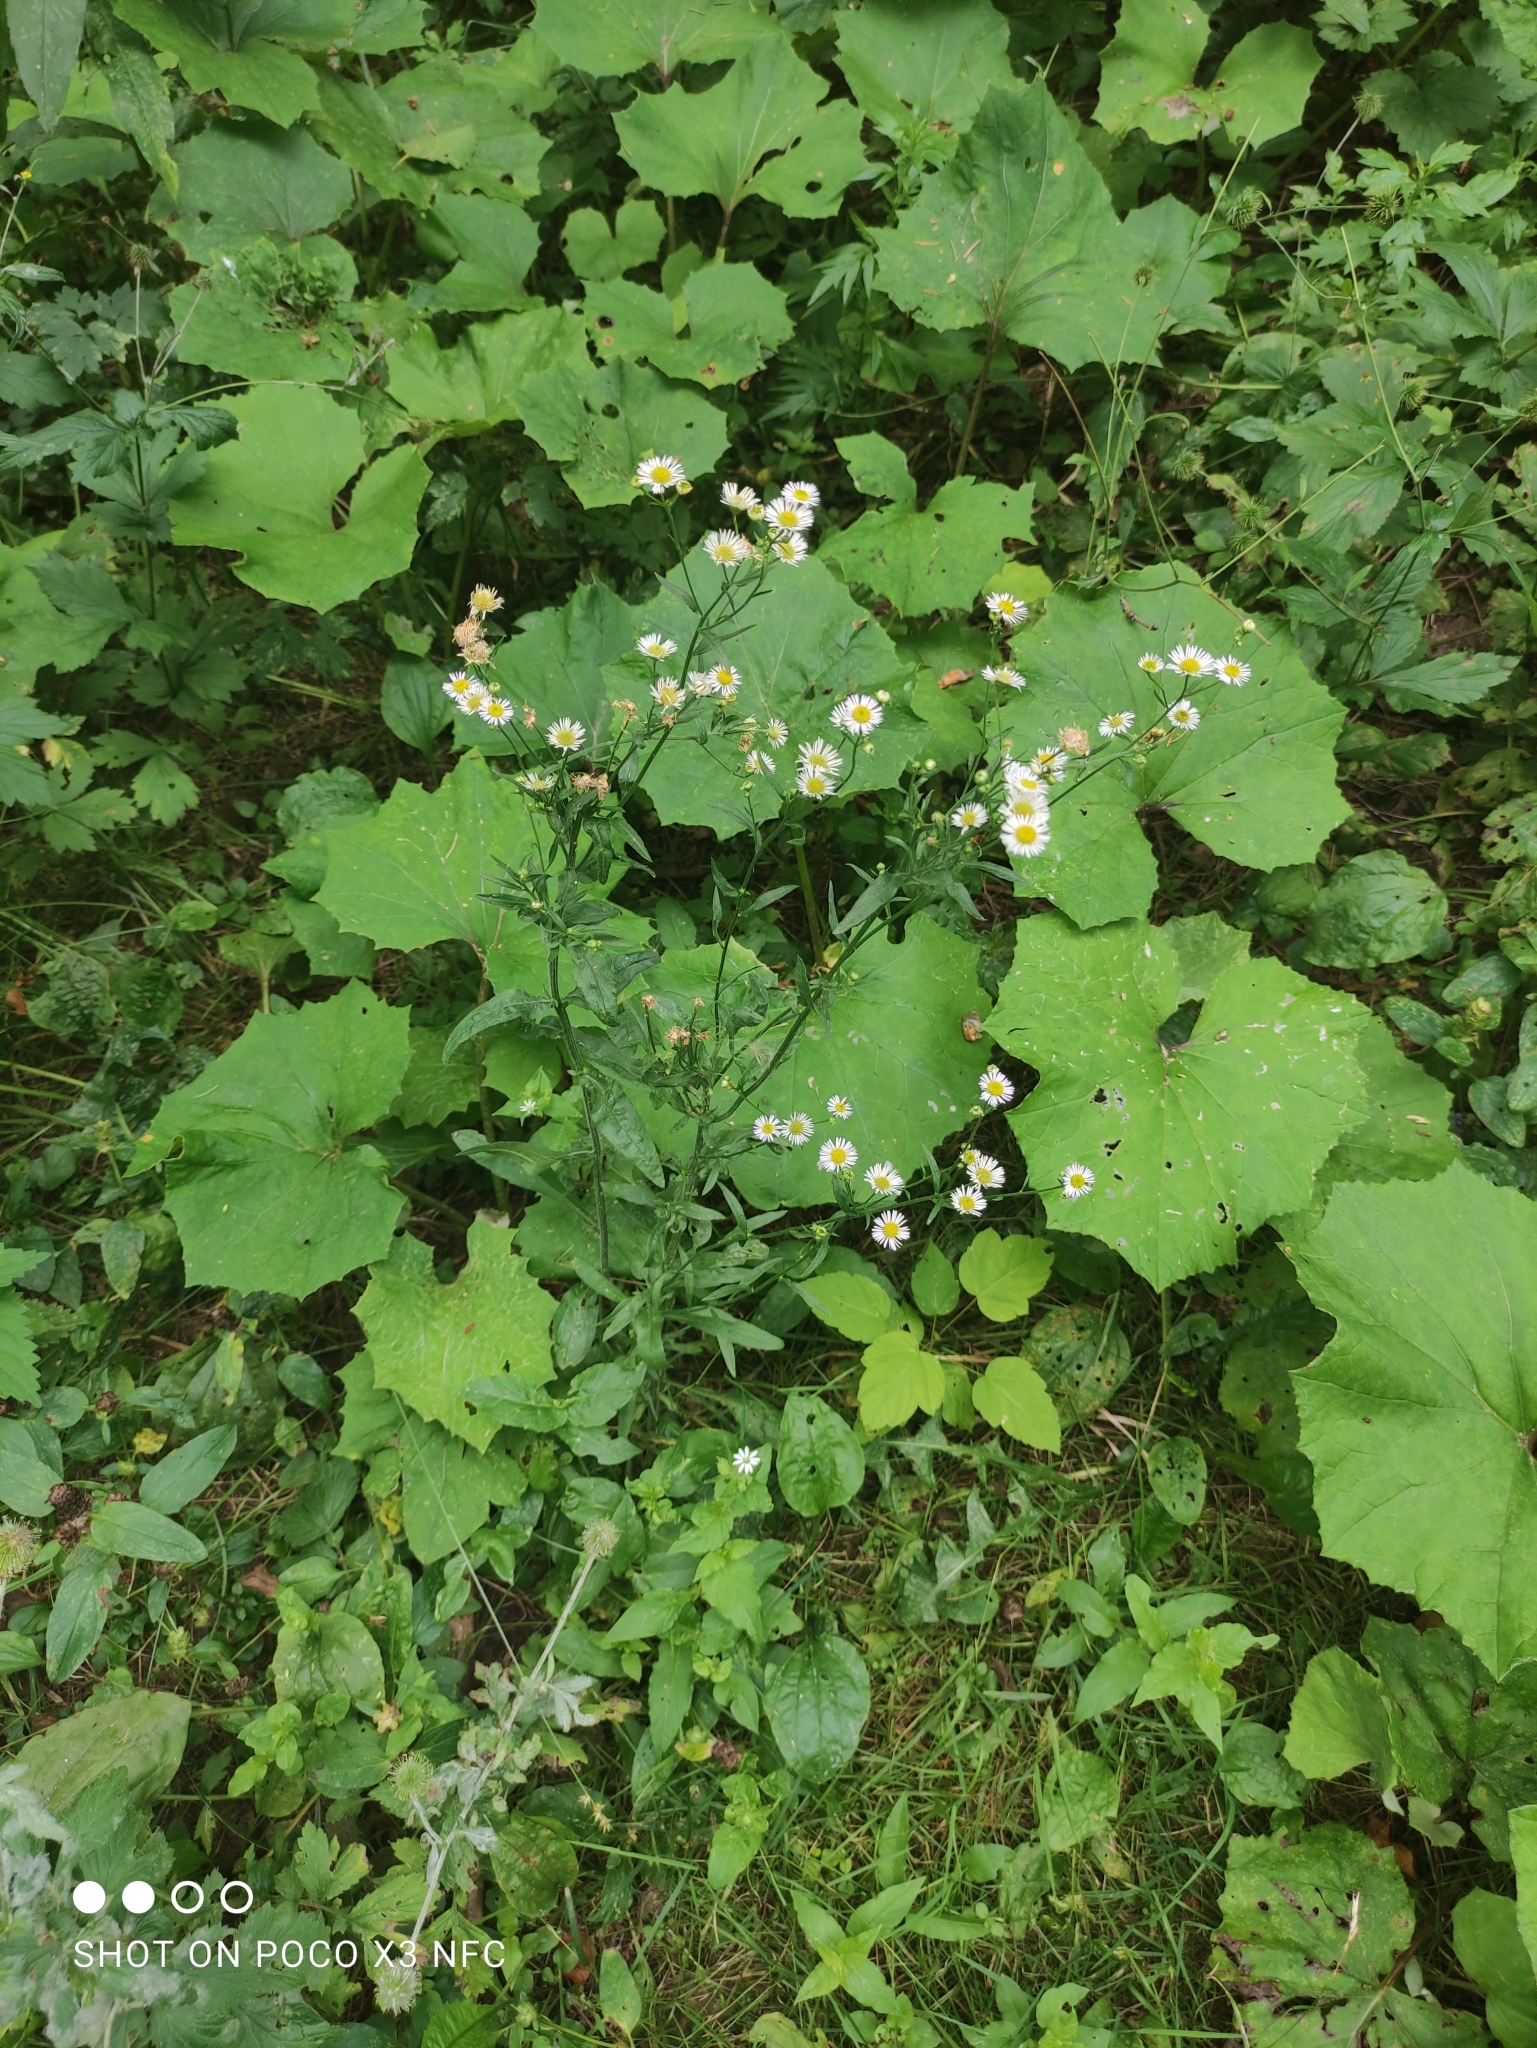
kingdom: Plantae
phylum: Tracheophyta
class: Magnoliopsida
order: Asterales
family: Asteraceae
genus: Erigeron
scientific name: Erigeron annuus
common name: Tall fleabane
